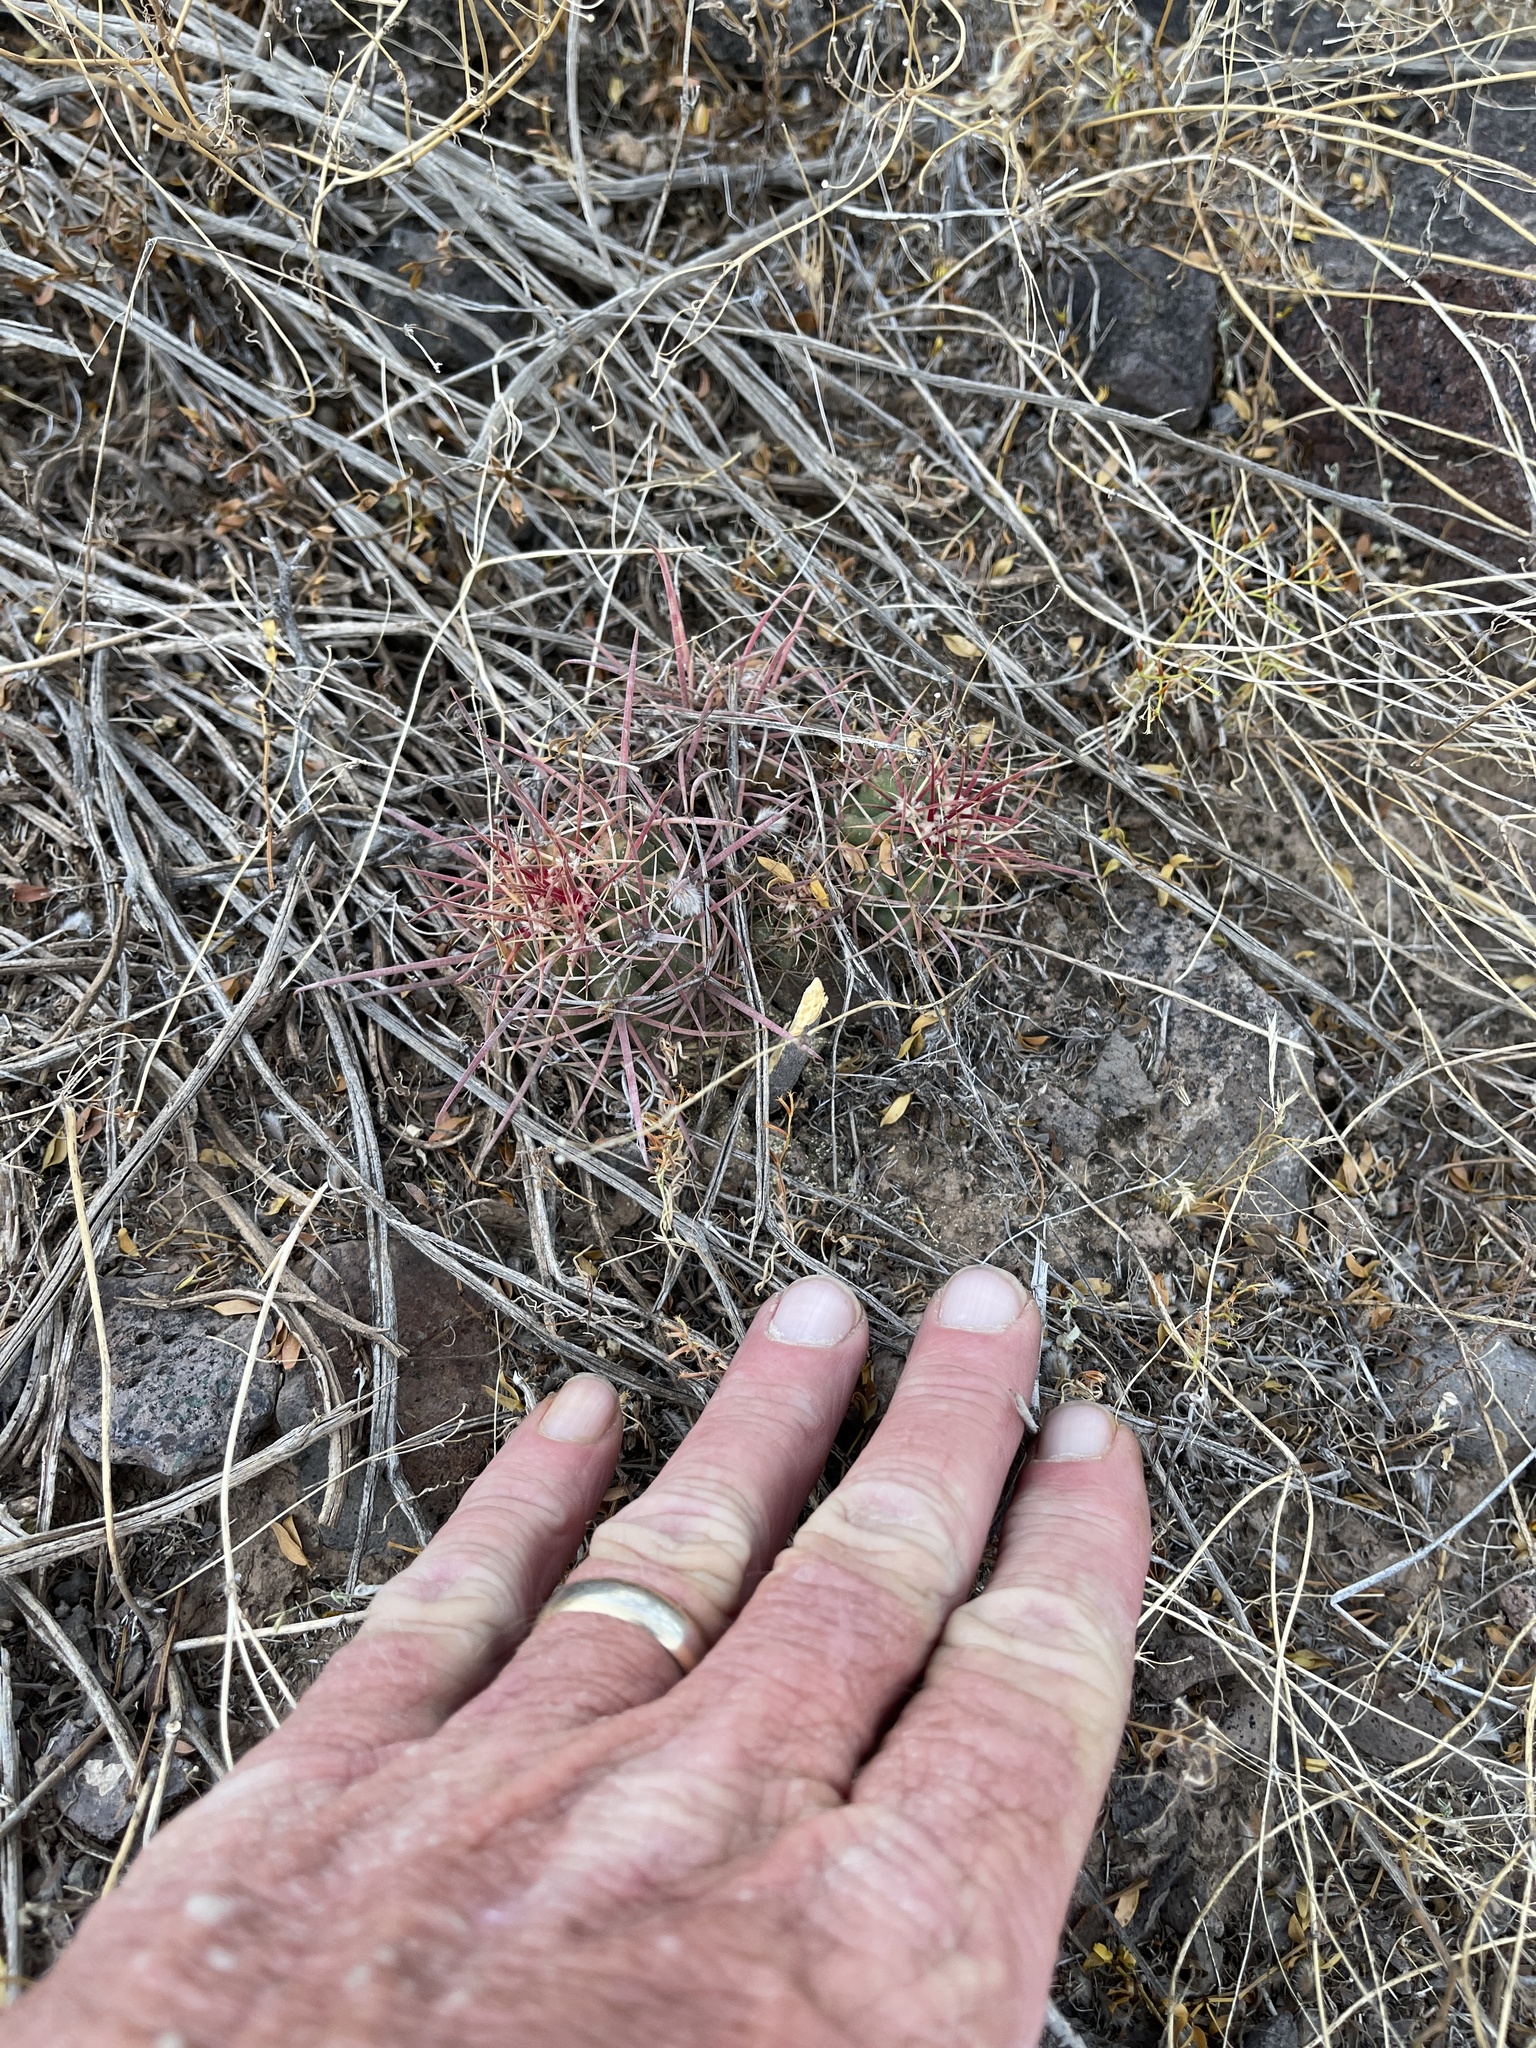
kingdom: Plantae
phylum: Tracheophyta
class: Magnoliopsida
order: Caryophyllales
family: Cactaceae
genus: Ferocactus
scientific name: Ferocactus cylindraceus
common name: California barrel cactus
